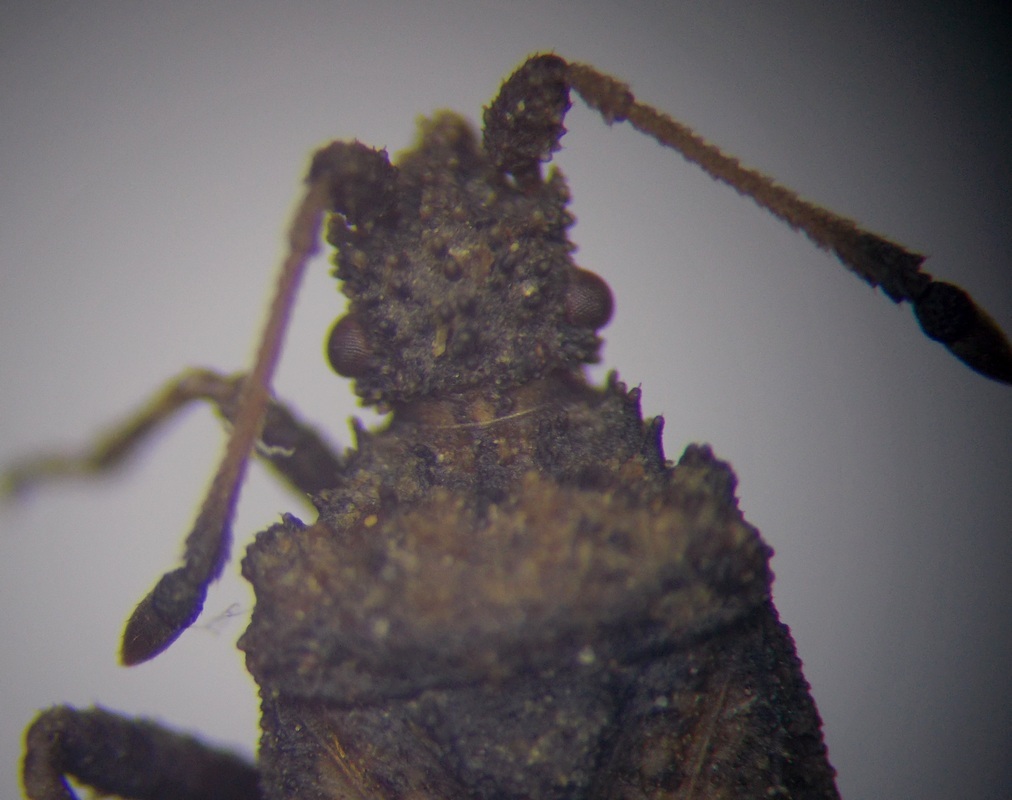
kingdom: Animalia
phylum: Arthropoda
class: Insecta
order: Hemiptera
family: Coreidae
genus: Arenocoris
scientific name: Arenocoris waltlii
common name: Breckland leatherbug
